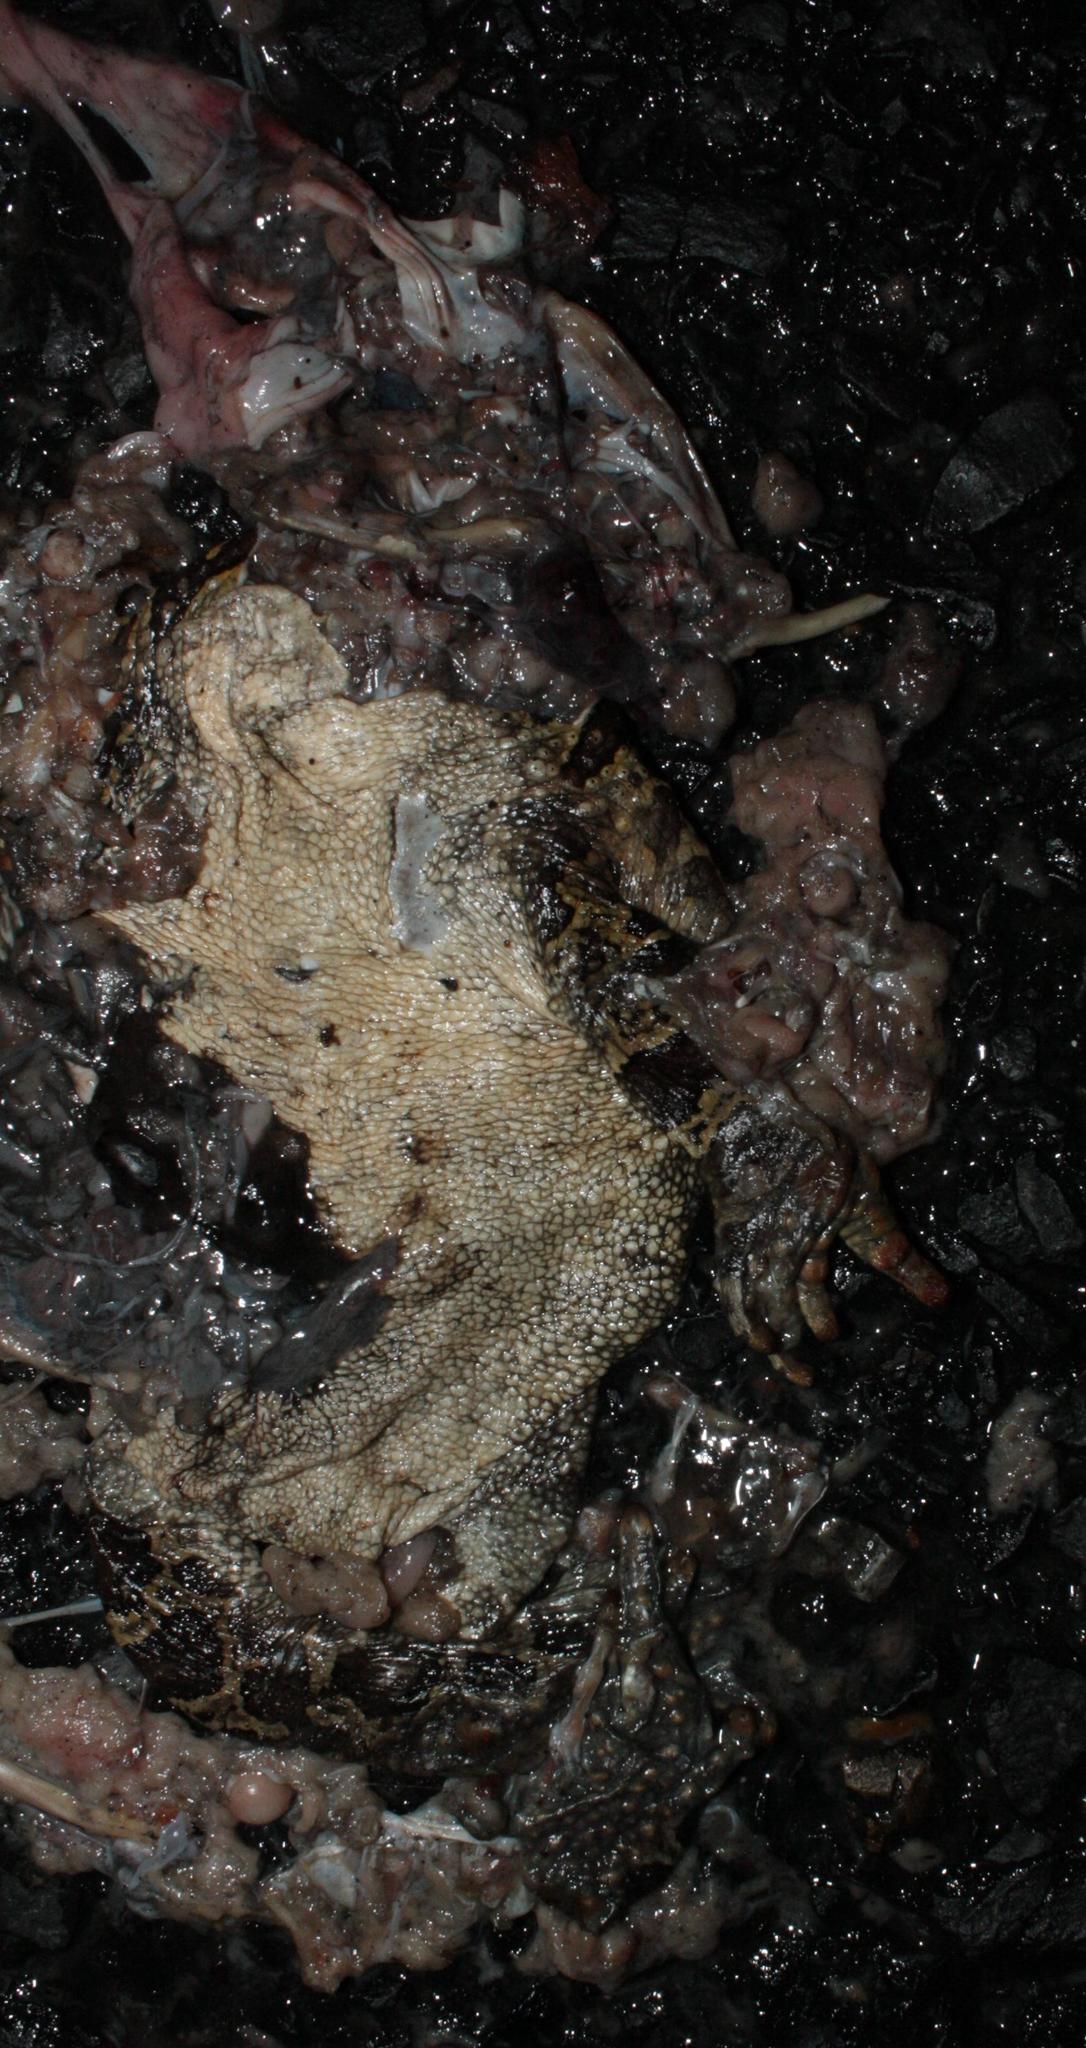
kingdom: Animalia
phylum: Chordata
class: Amphibia
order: Anura
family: Bufonidae
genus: Sclerophrys
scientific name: Sclerophrys pantherina
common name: Panther toad
